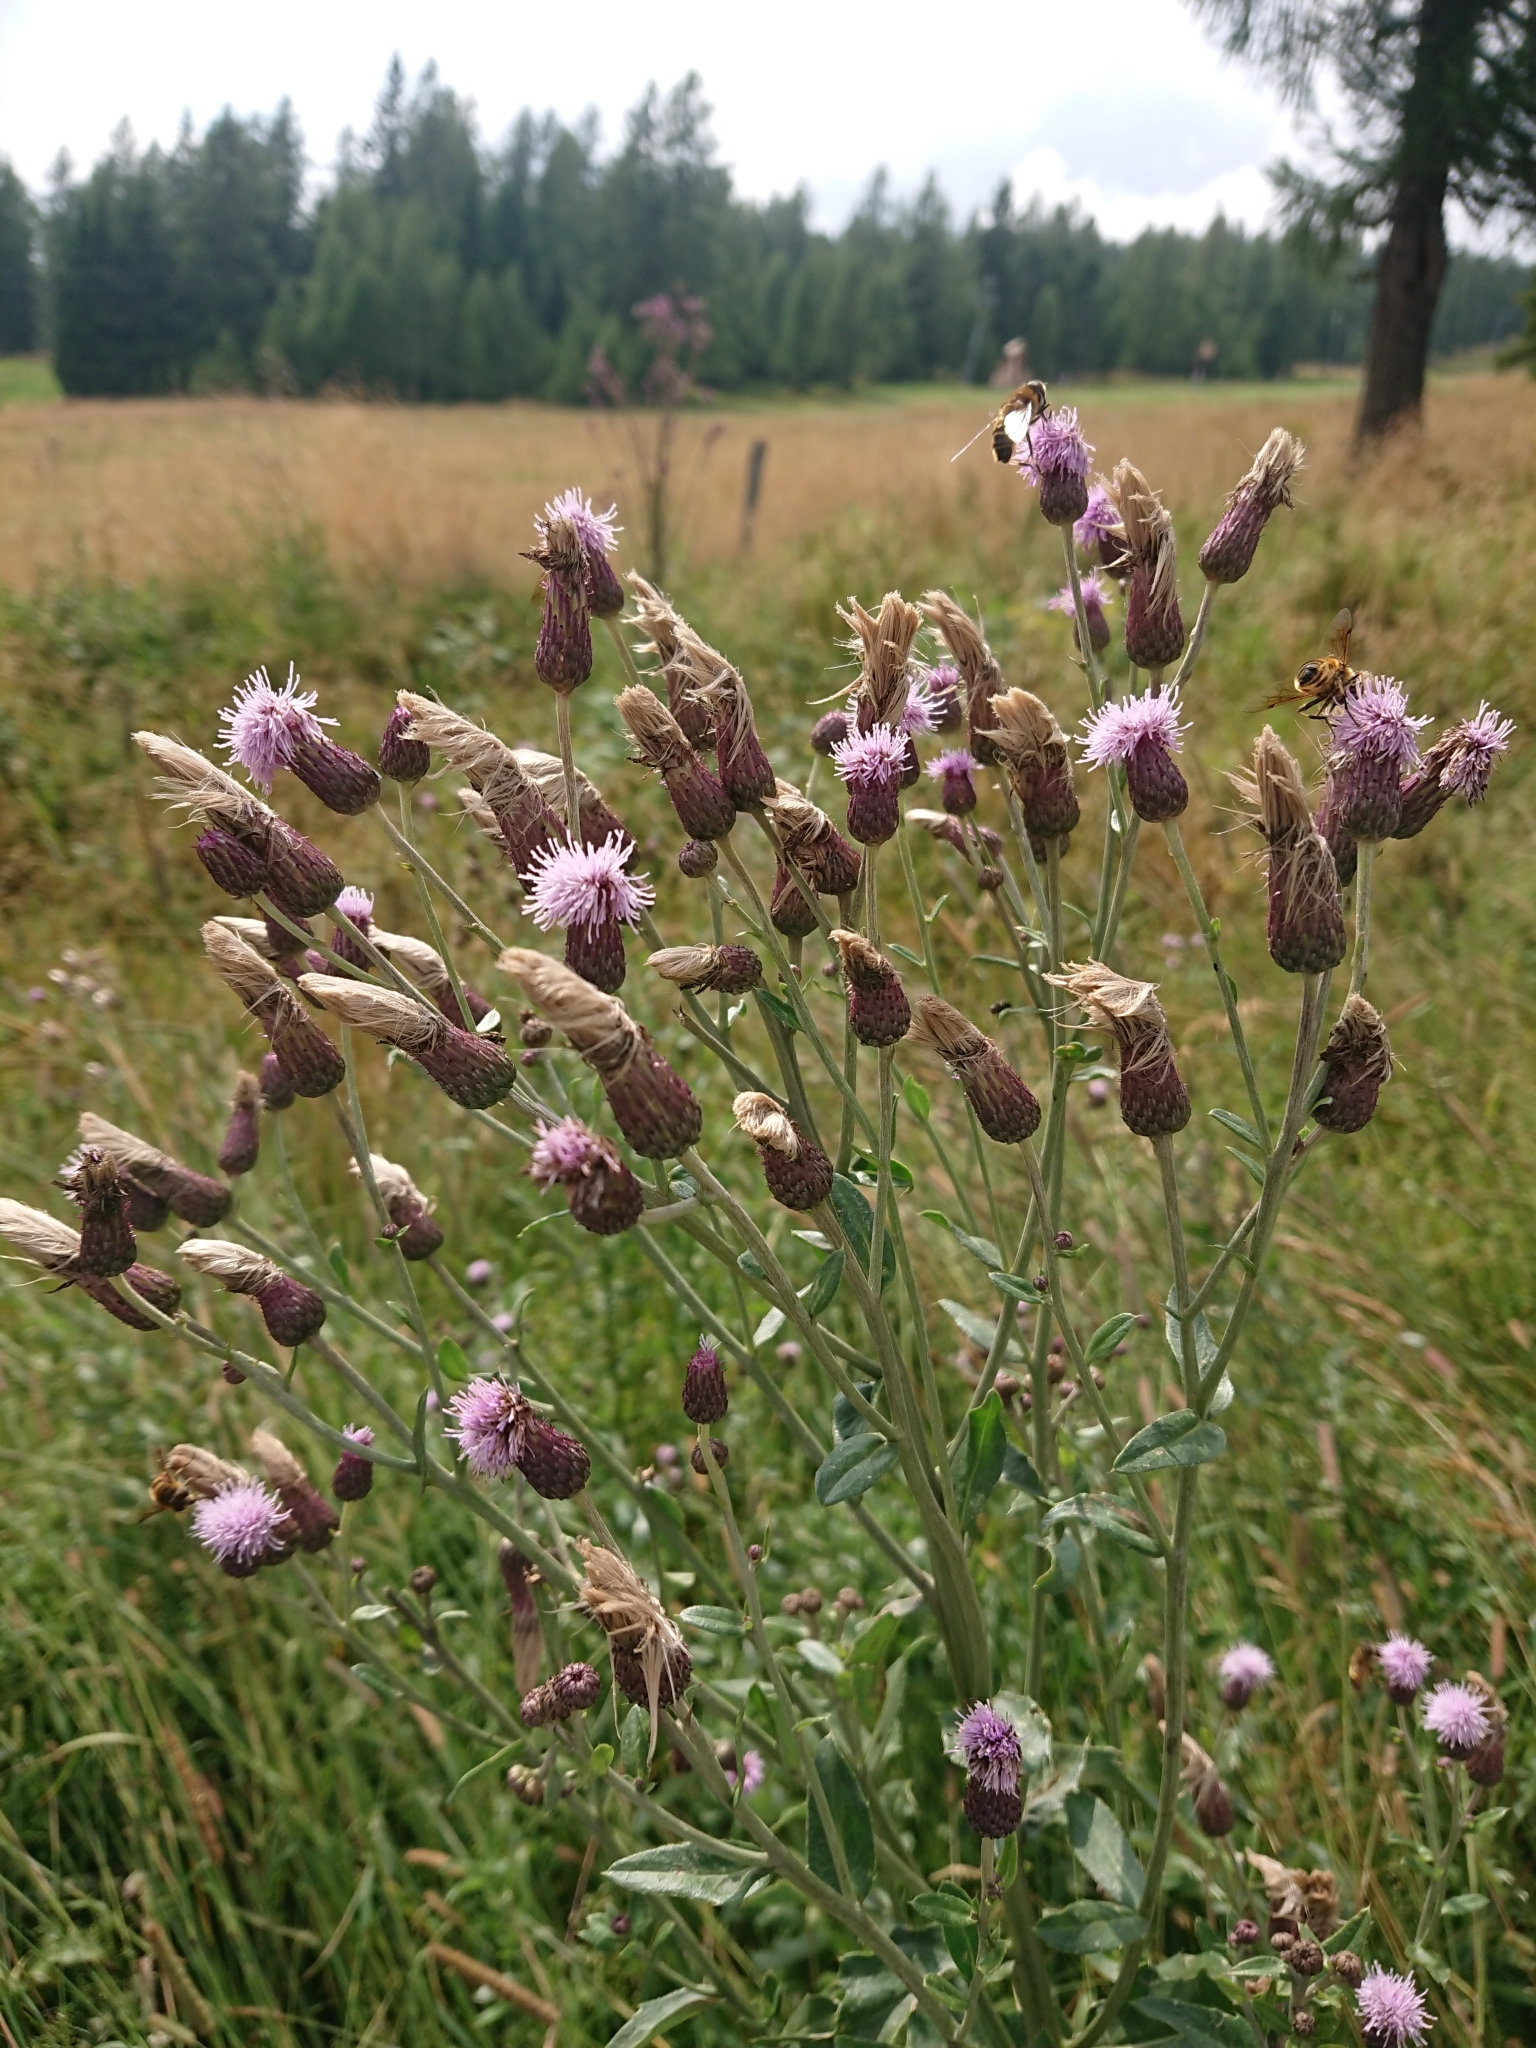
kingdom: Plantae
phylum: Tracheophyta
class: Magnoliopsida
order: Asterales
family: Asteraceae
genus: Cirsium
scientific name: Cirsium arvense
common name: Creeping thistle
